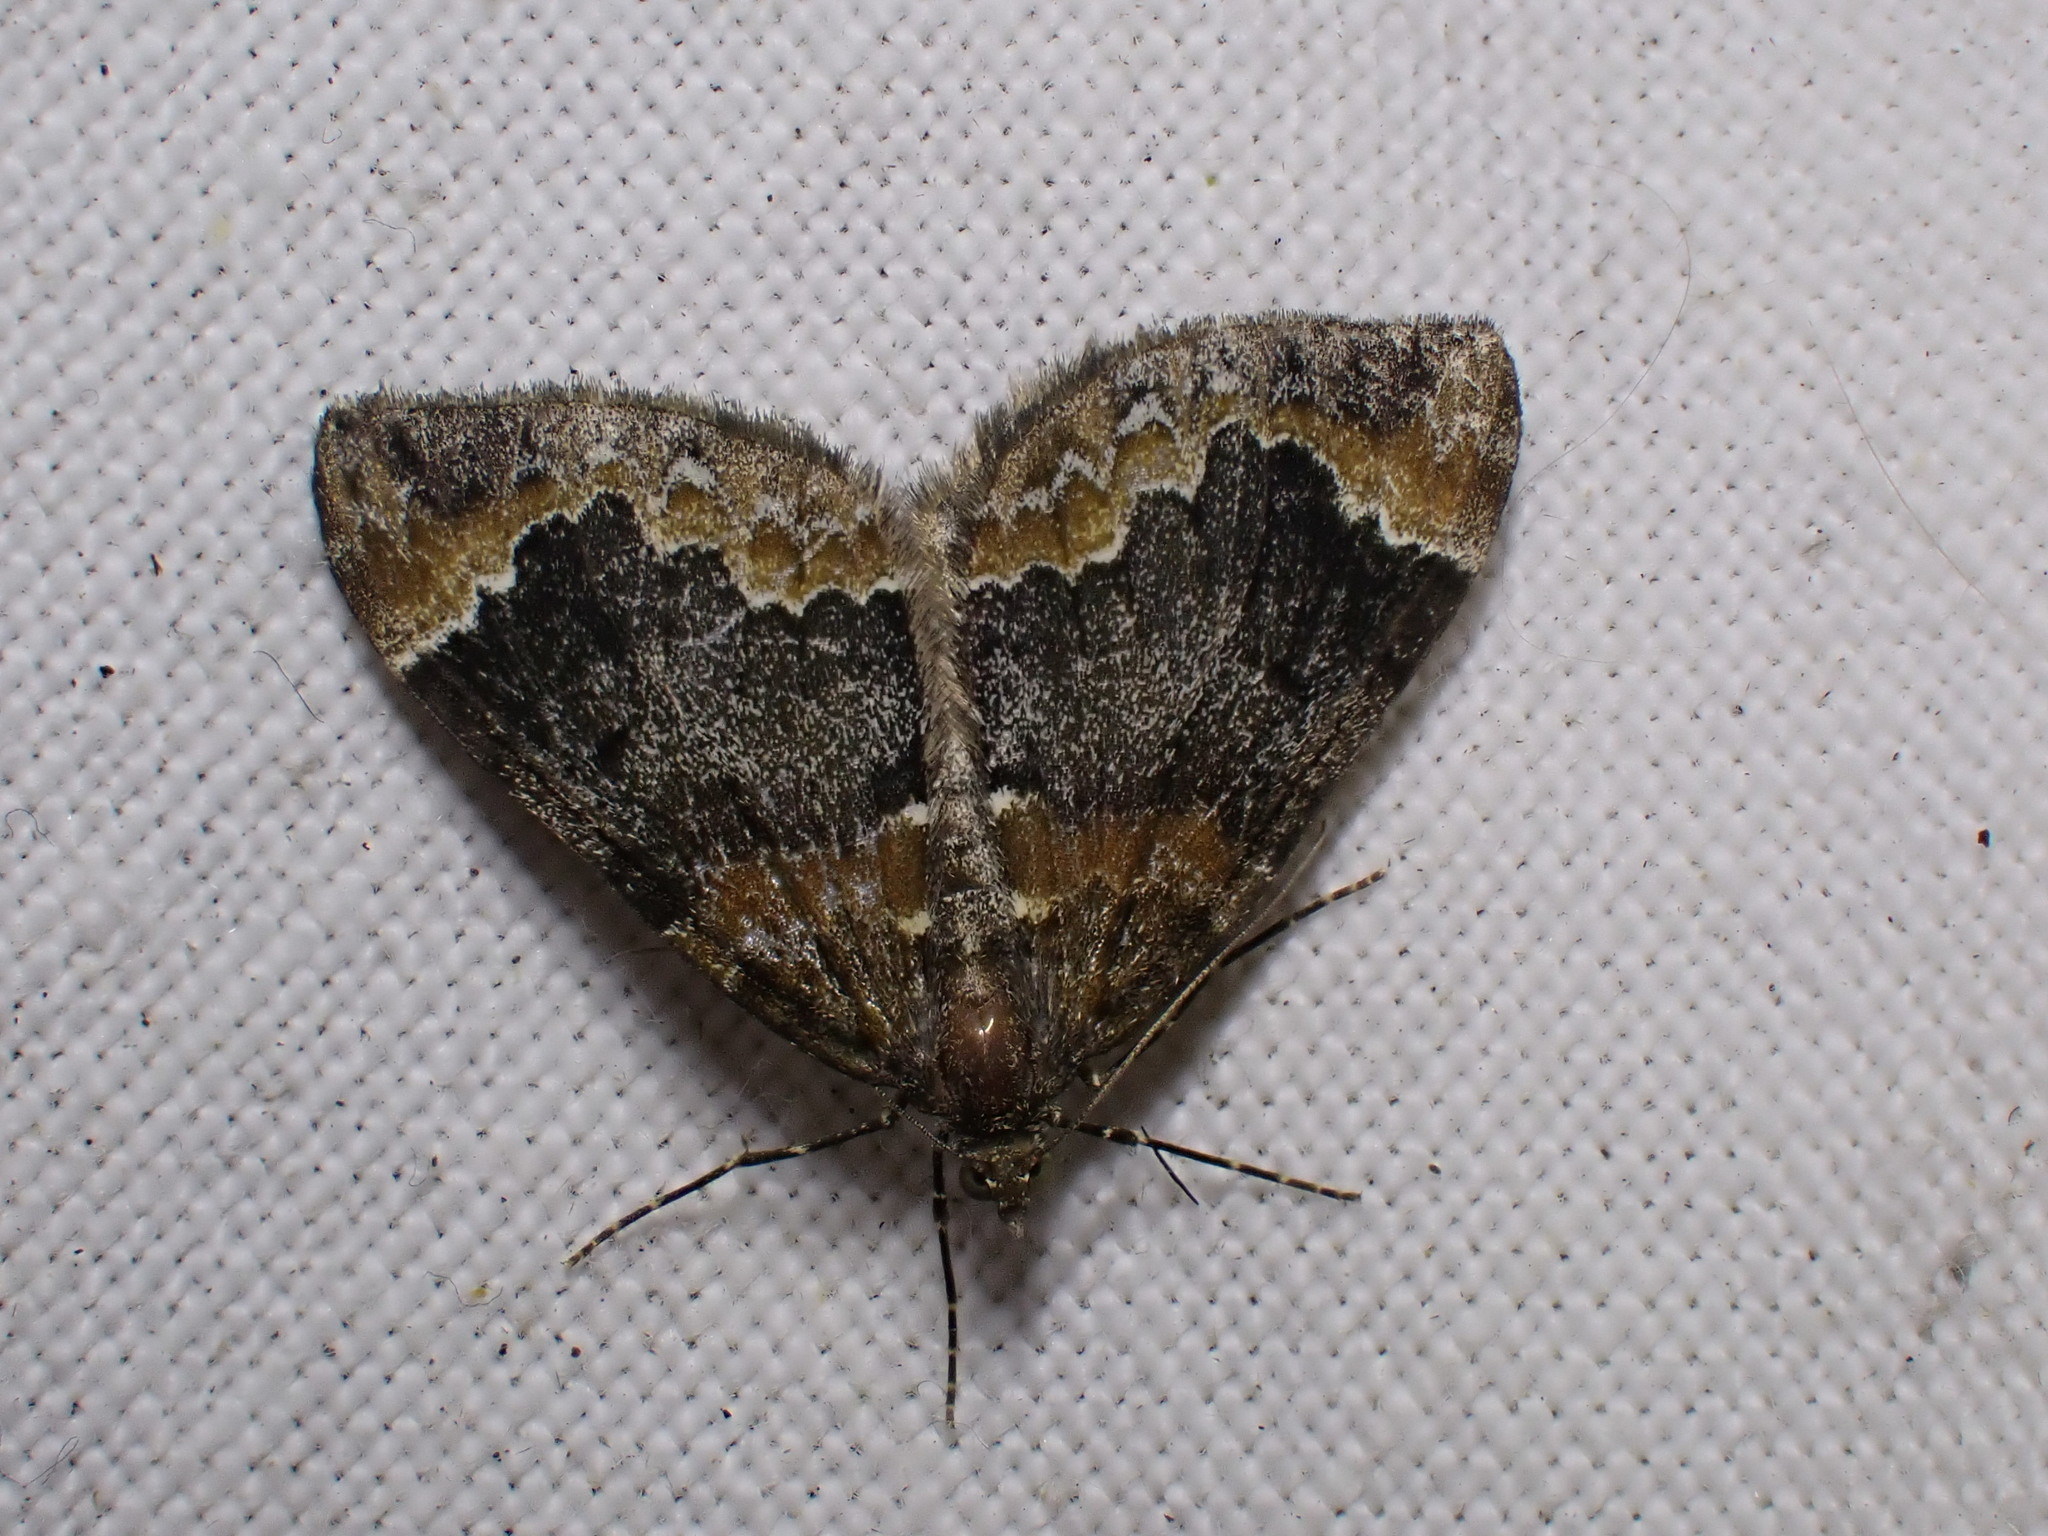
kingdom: Animalia
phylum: Arthropoda
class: Insecta
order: Lepidoptera
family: Geometridae
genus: Dysstroma
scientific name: Dysstroma truncata
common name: Common marbled carpet
